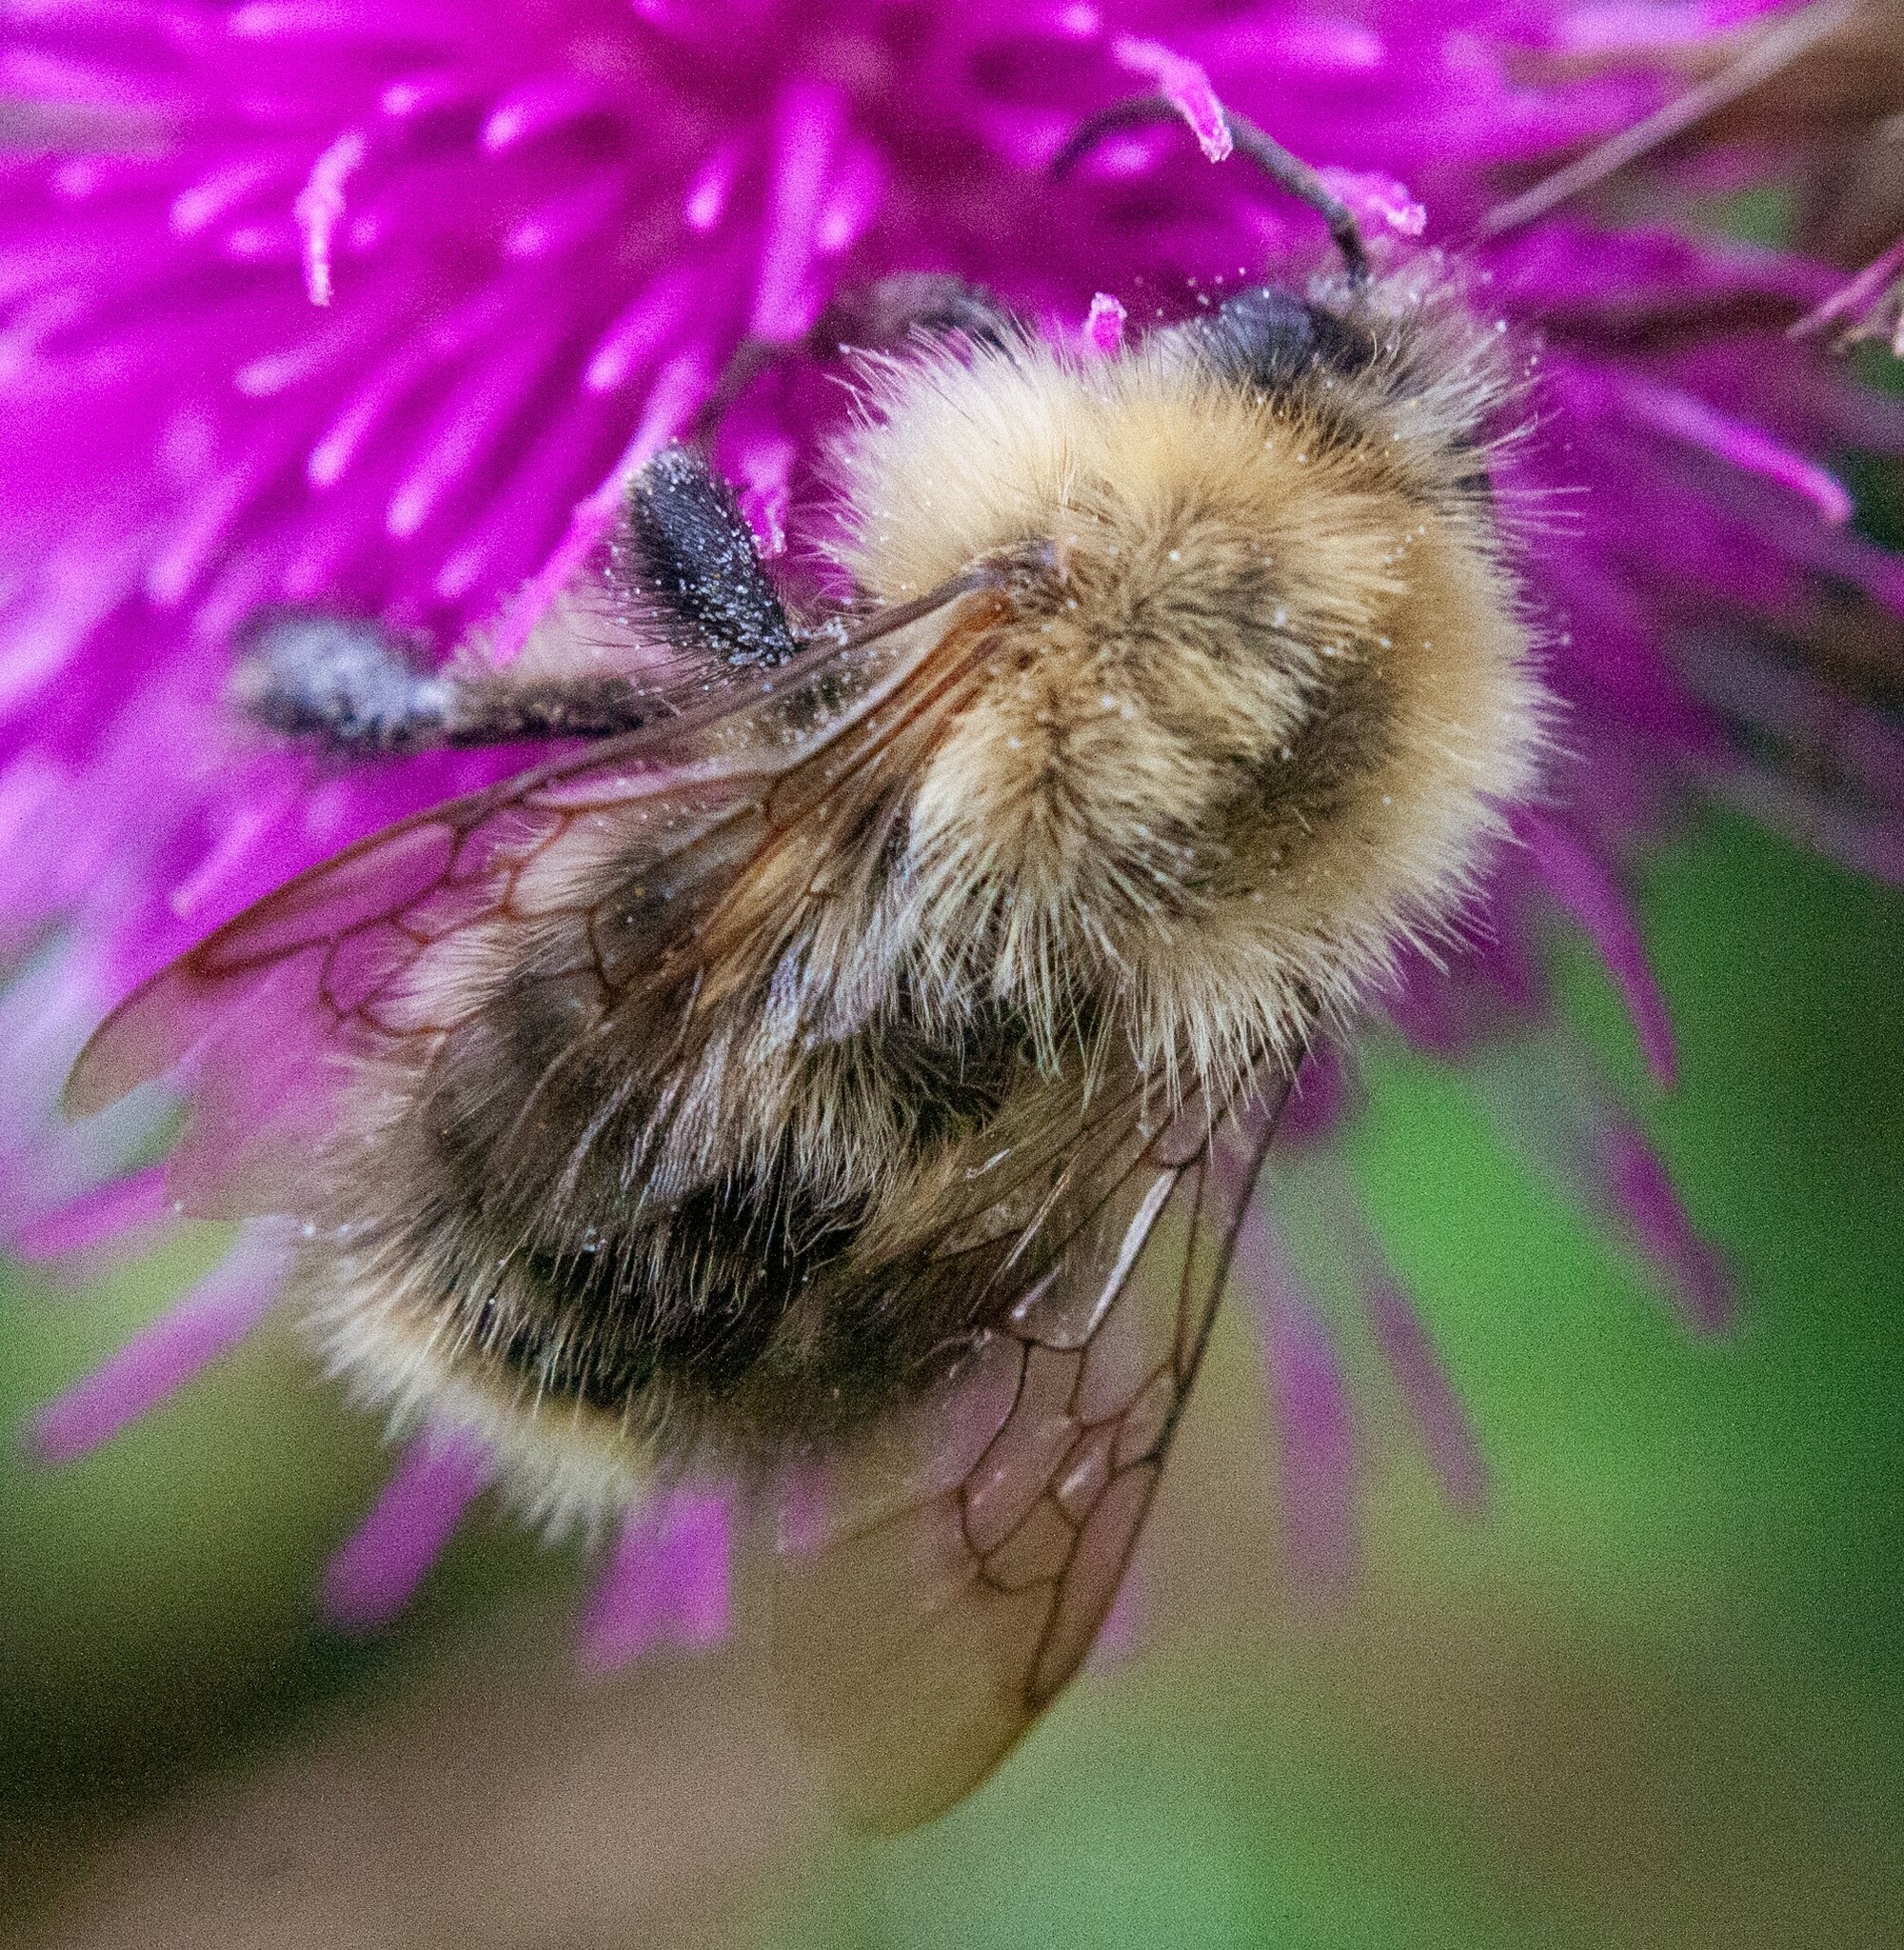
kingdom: Animalia
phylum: Arthropoda
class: Insecta
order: Hymenoptera
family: Apidae
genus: Bombus
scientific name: Bombus pascuorum
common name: Common carder bee
